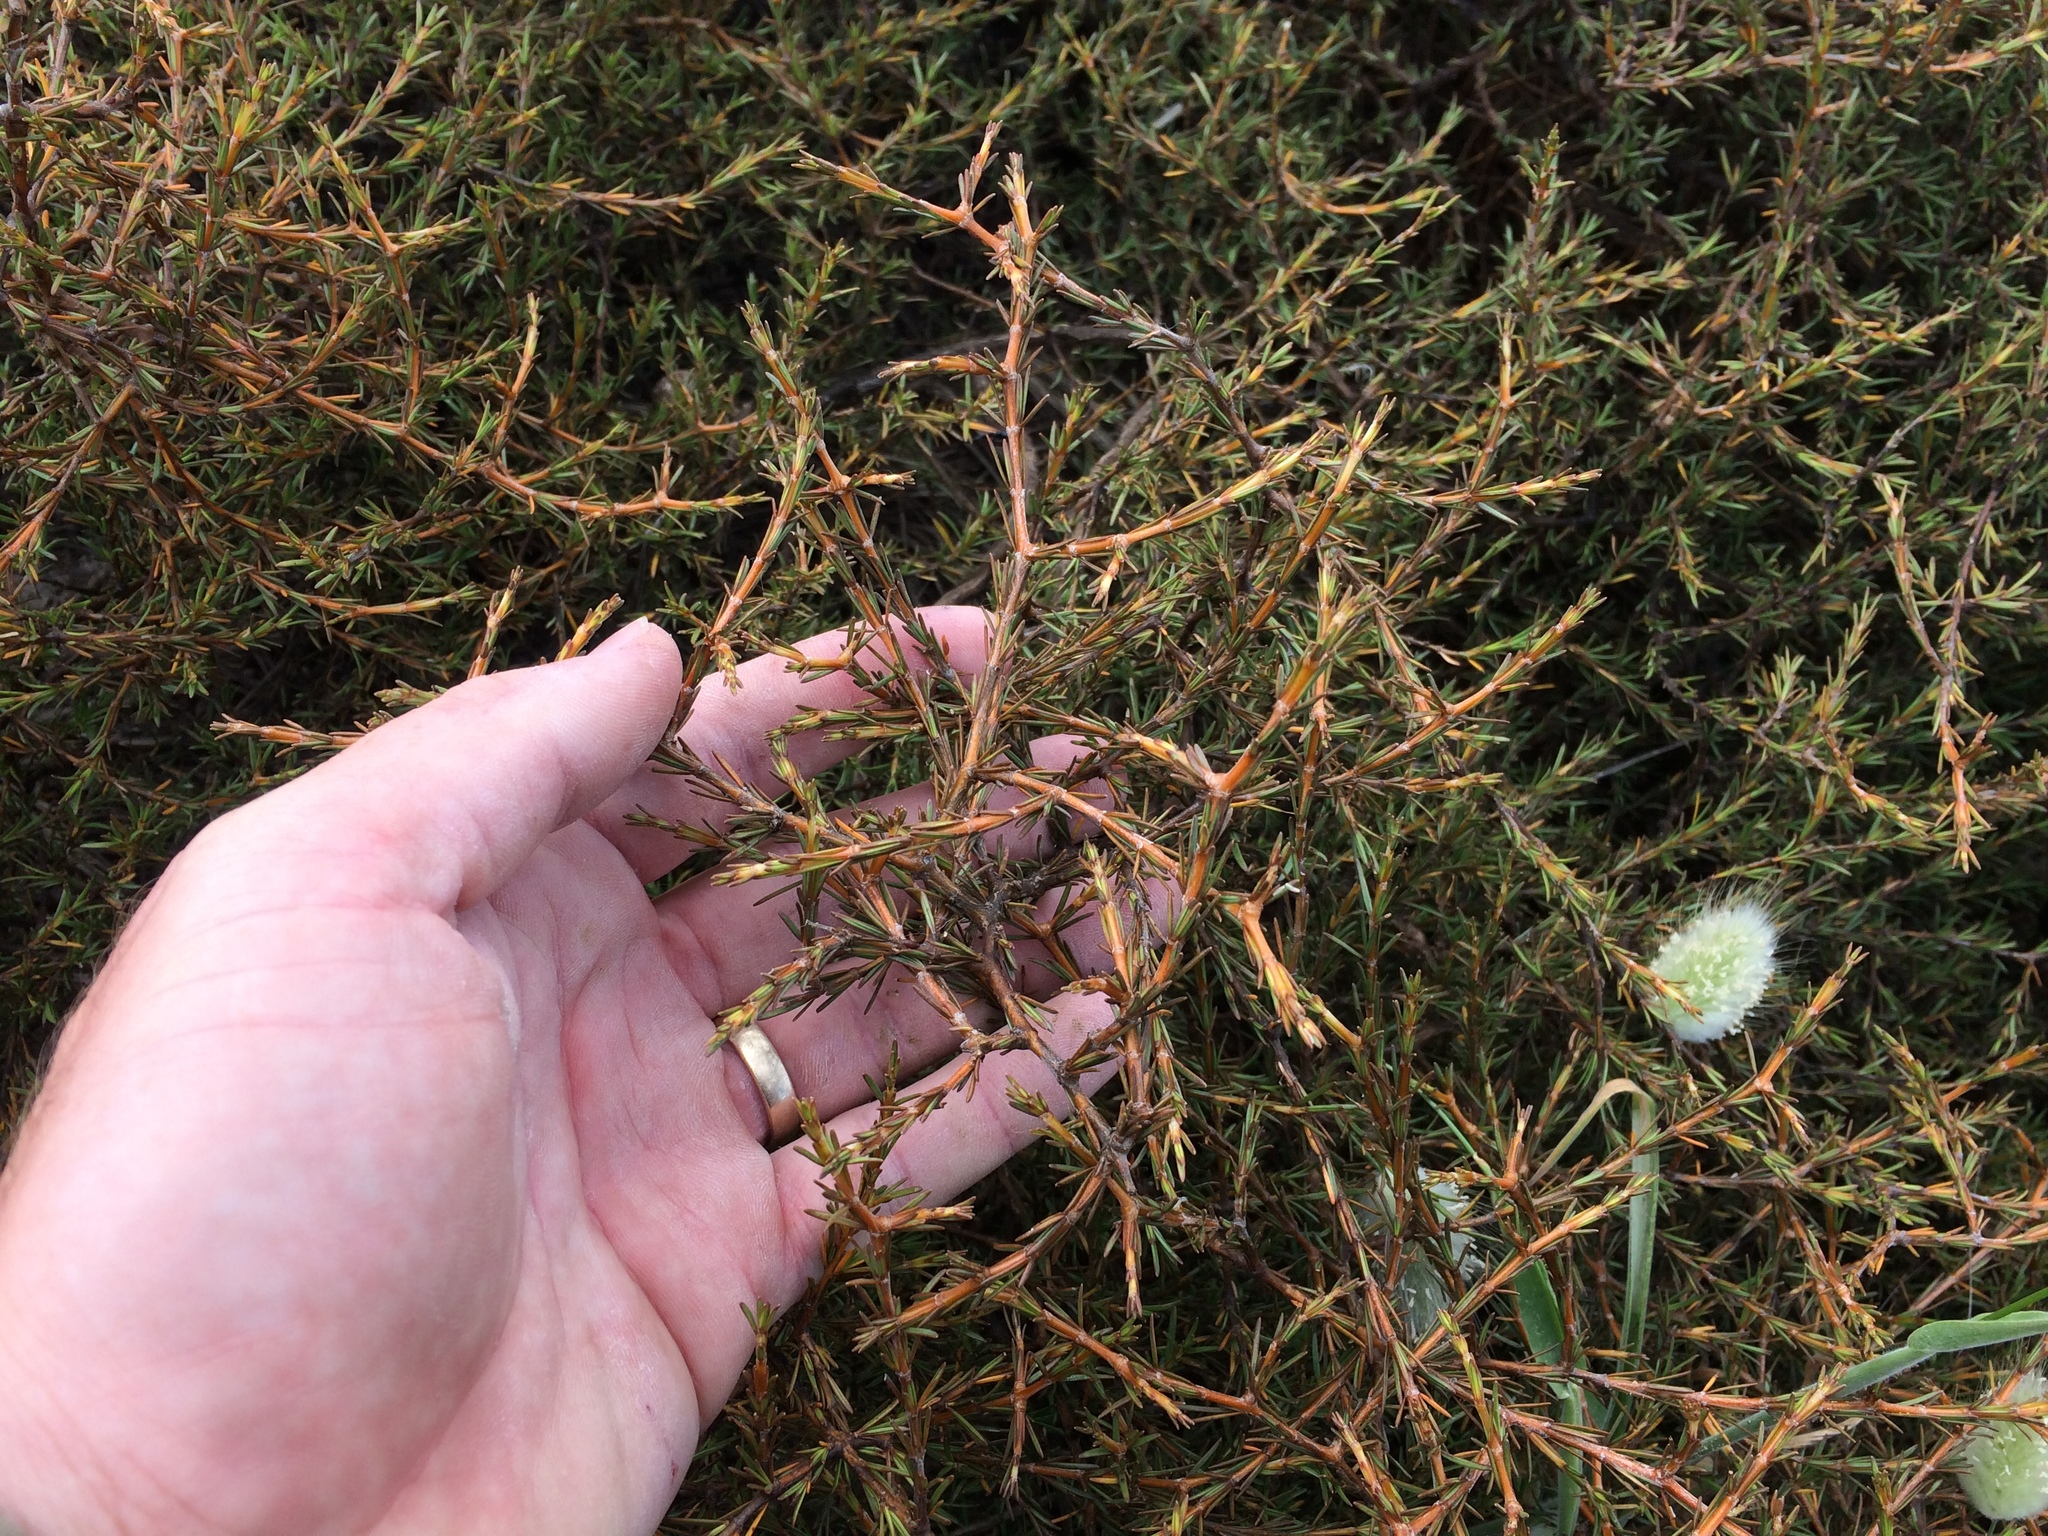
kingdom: Plantae
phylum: Tracheophyta
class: Magnoliopsida
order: Gentianales
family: Rubiaceae
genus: Coprosma
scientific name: Coprosma acerosa
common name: Sand coprosma
